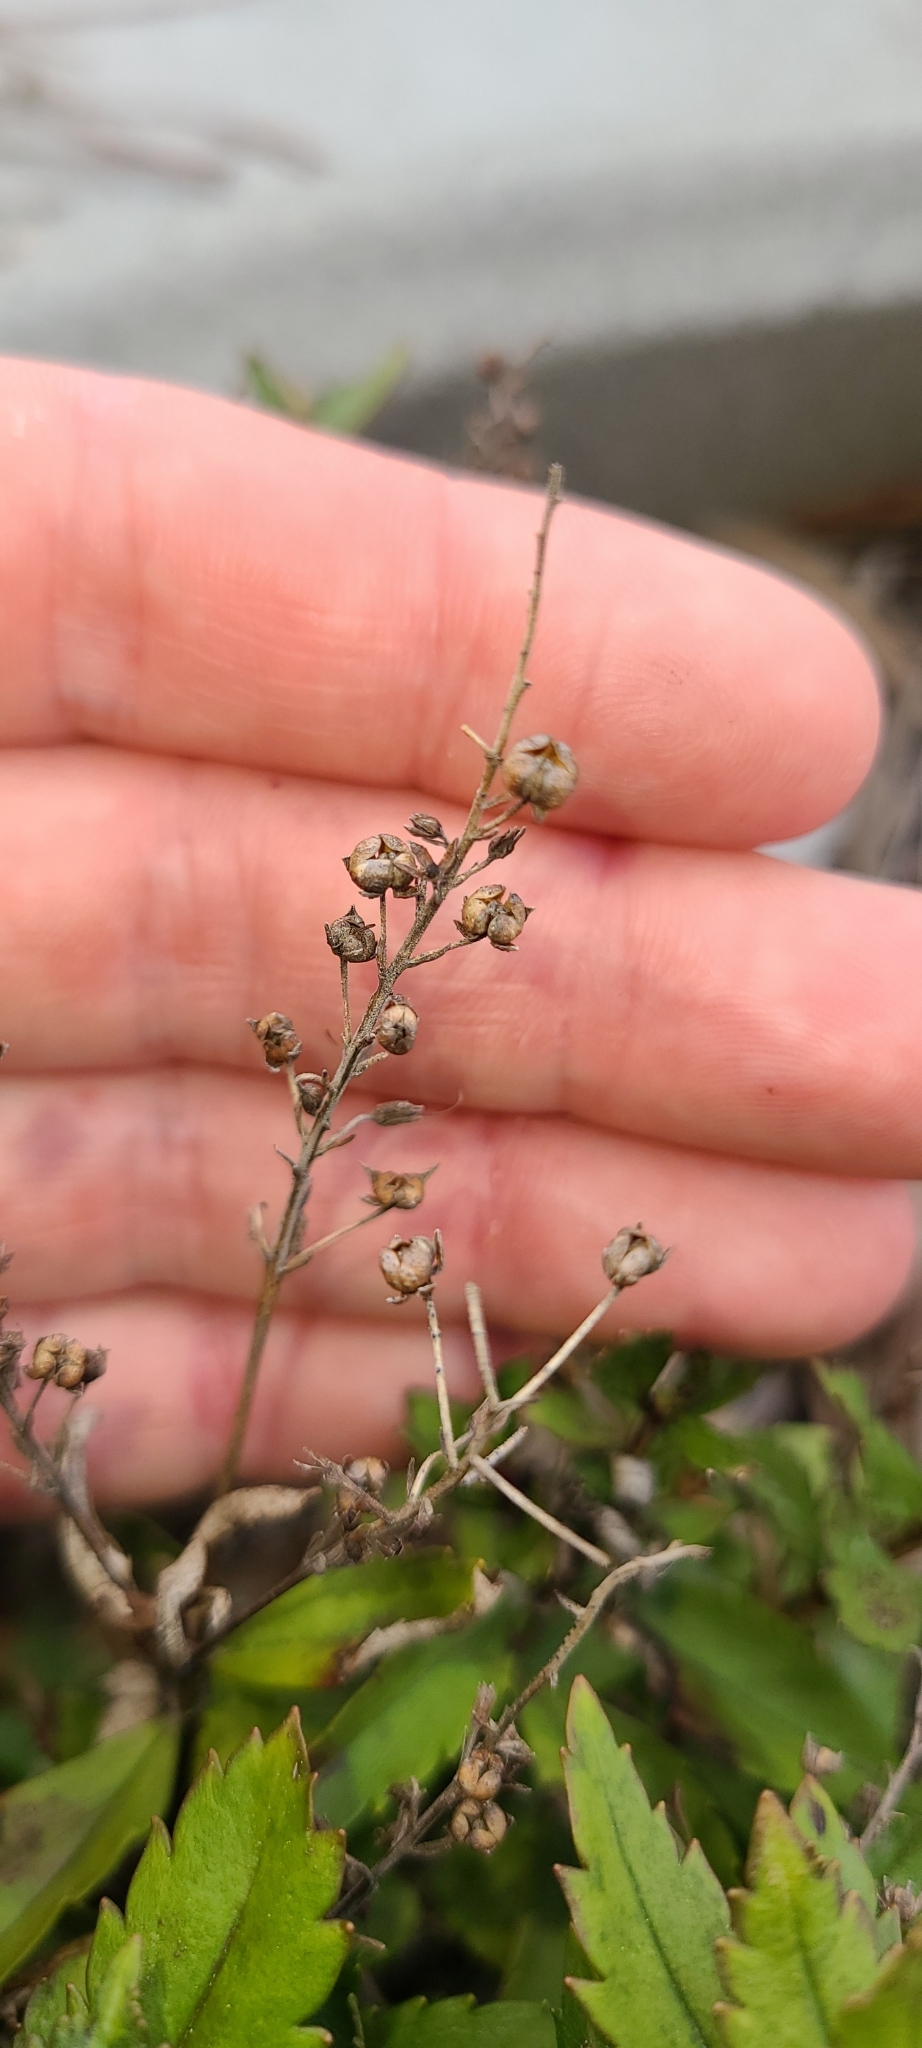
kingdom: Plantae
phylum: Tracheophyta
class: Magnoliopsida
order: Saxifragales
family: Haloragaceae
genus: Haloragis
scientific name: Haloragis erecta
